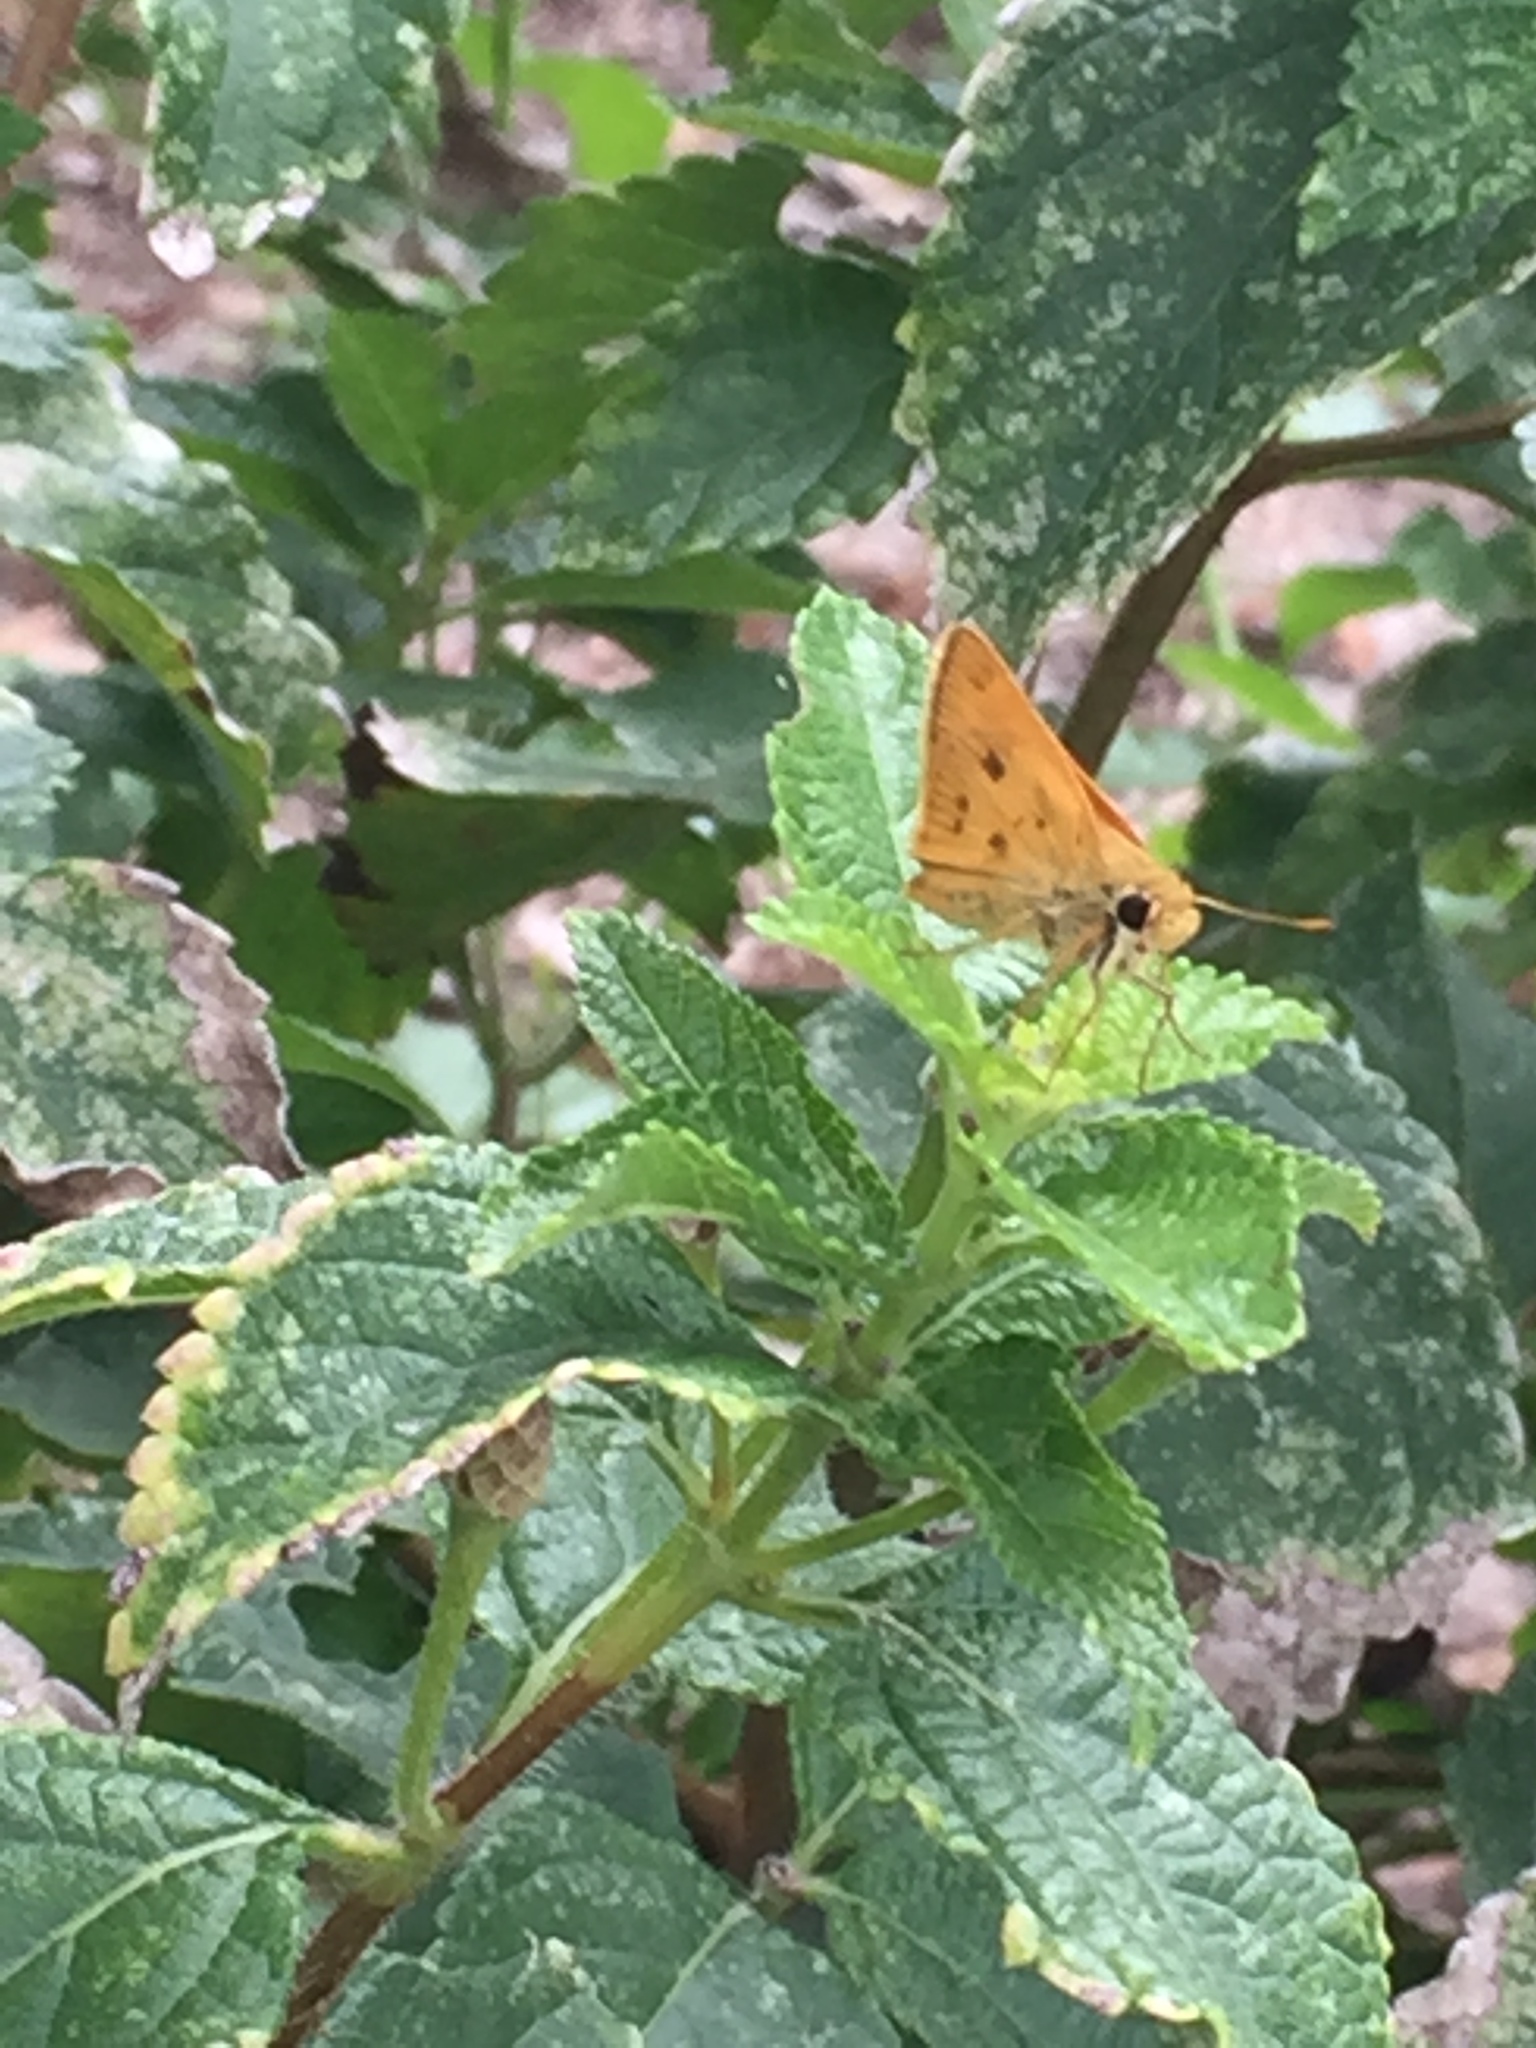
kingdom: Animalia
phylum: Arthropoda
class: Insecta
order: Lepidoptera
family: Hesperiidae
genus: Polites
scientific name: Polites vibex
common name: Whirlabout
